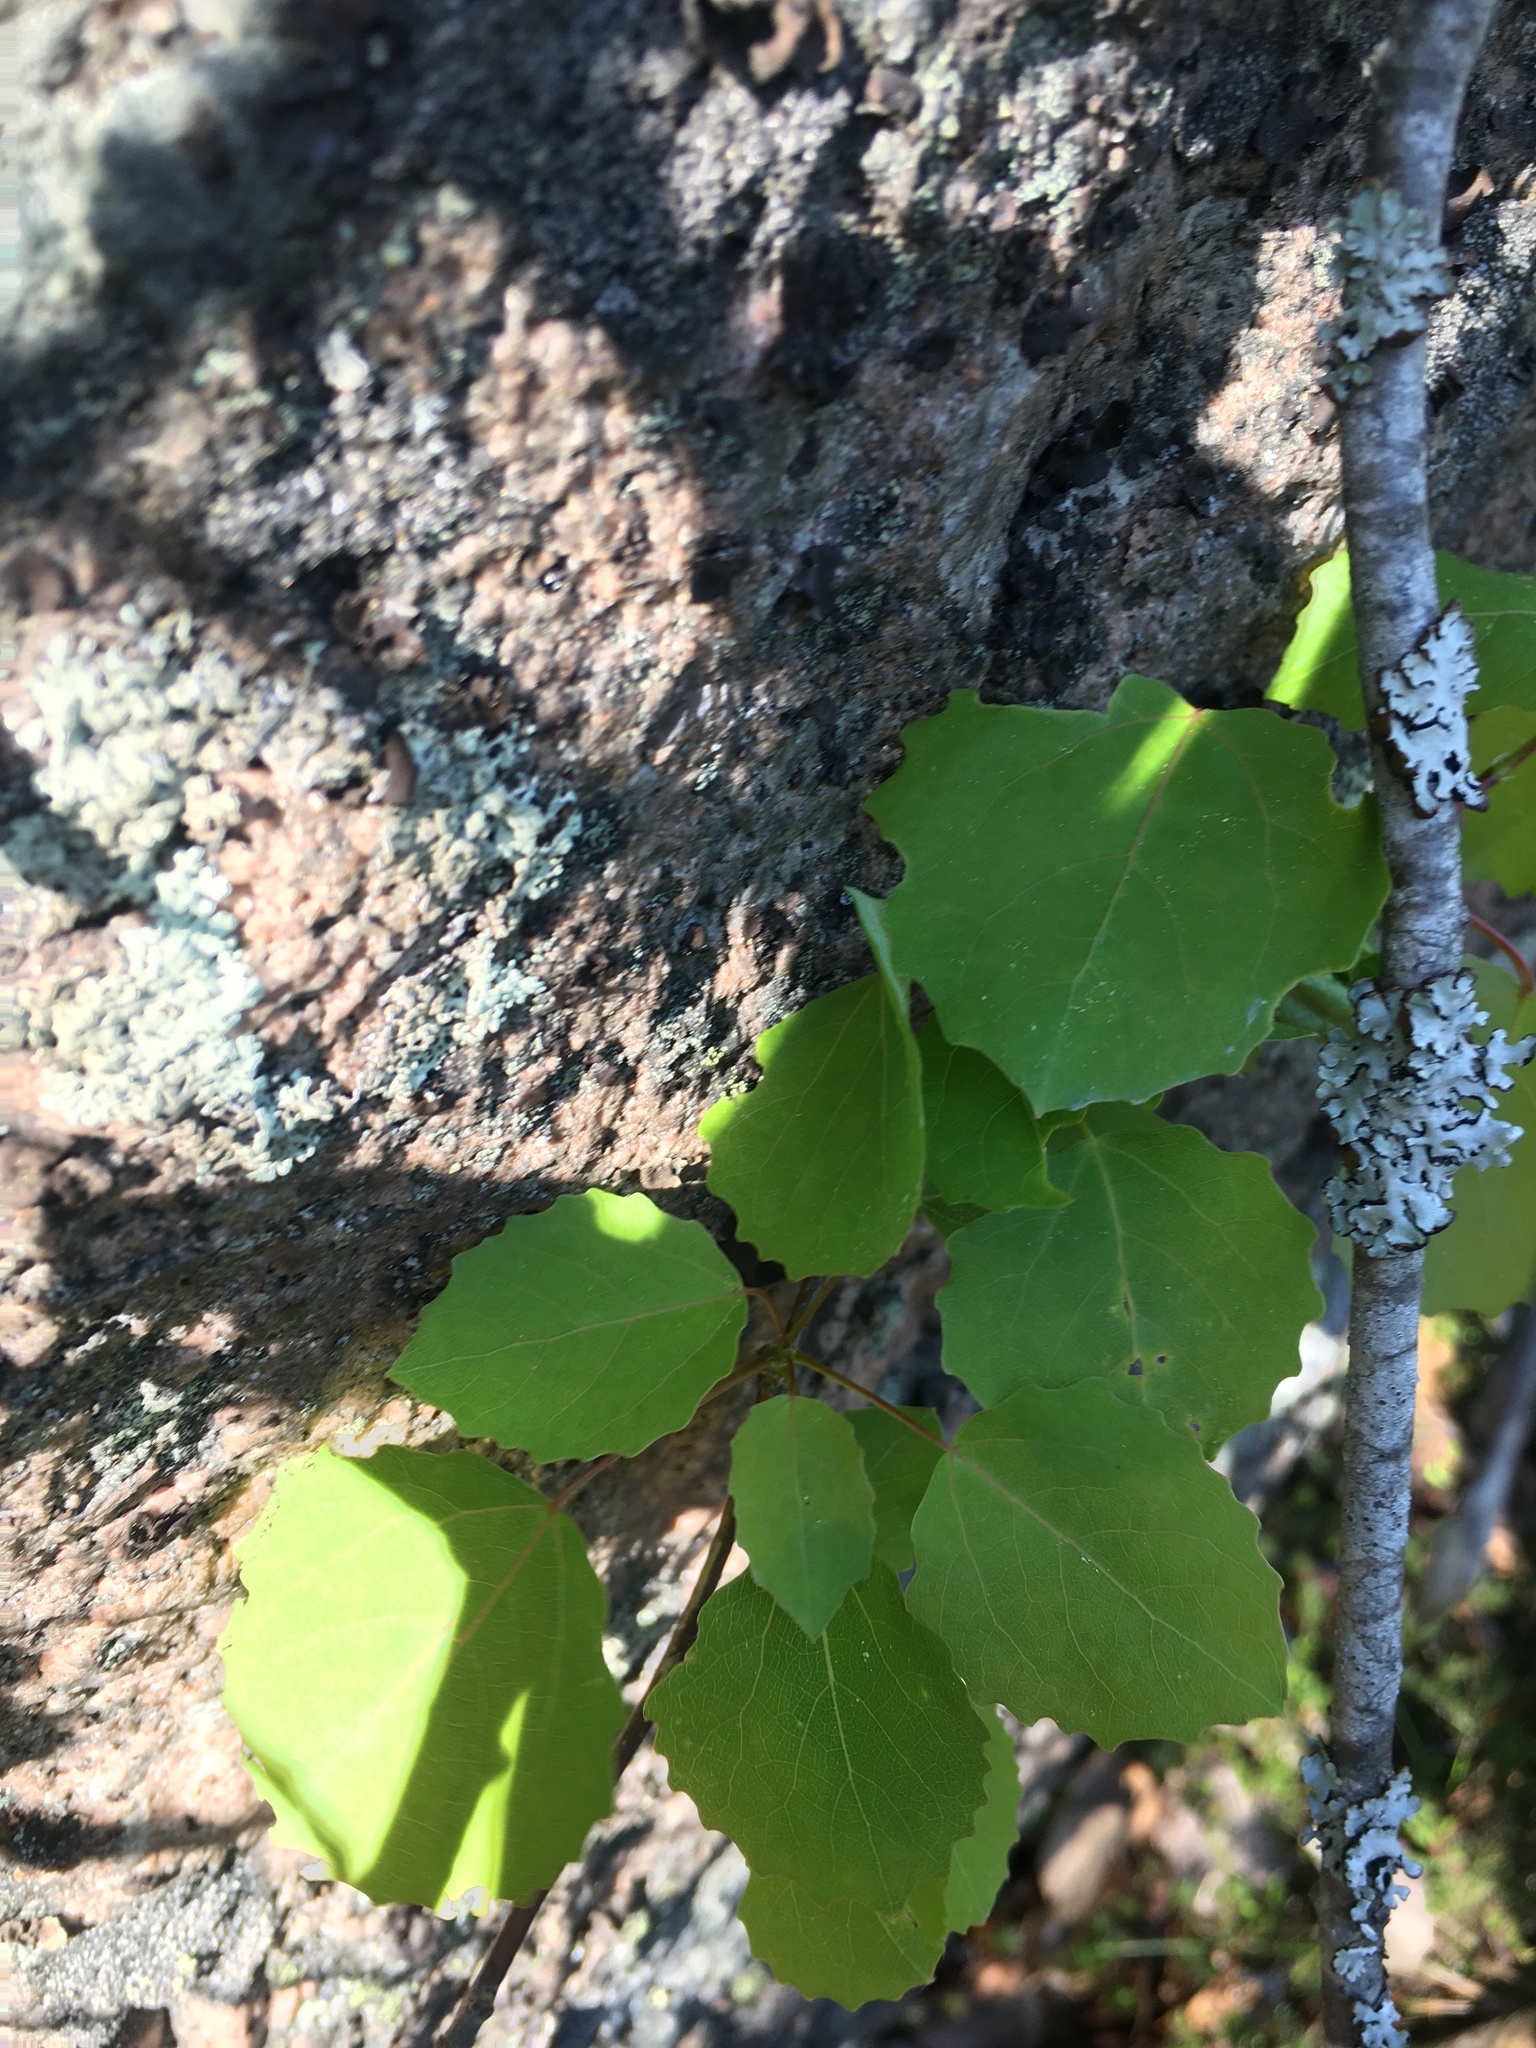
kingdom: Plantae
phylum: Tracheophyta
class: Magnoliopsida
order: Malpighiales
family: Salicaceae
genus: Populus
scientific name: Populus tremula
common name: European aspen
